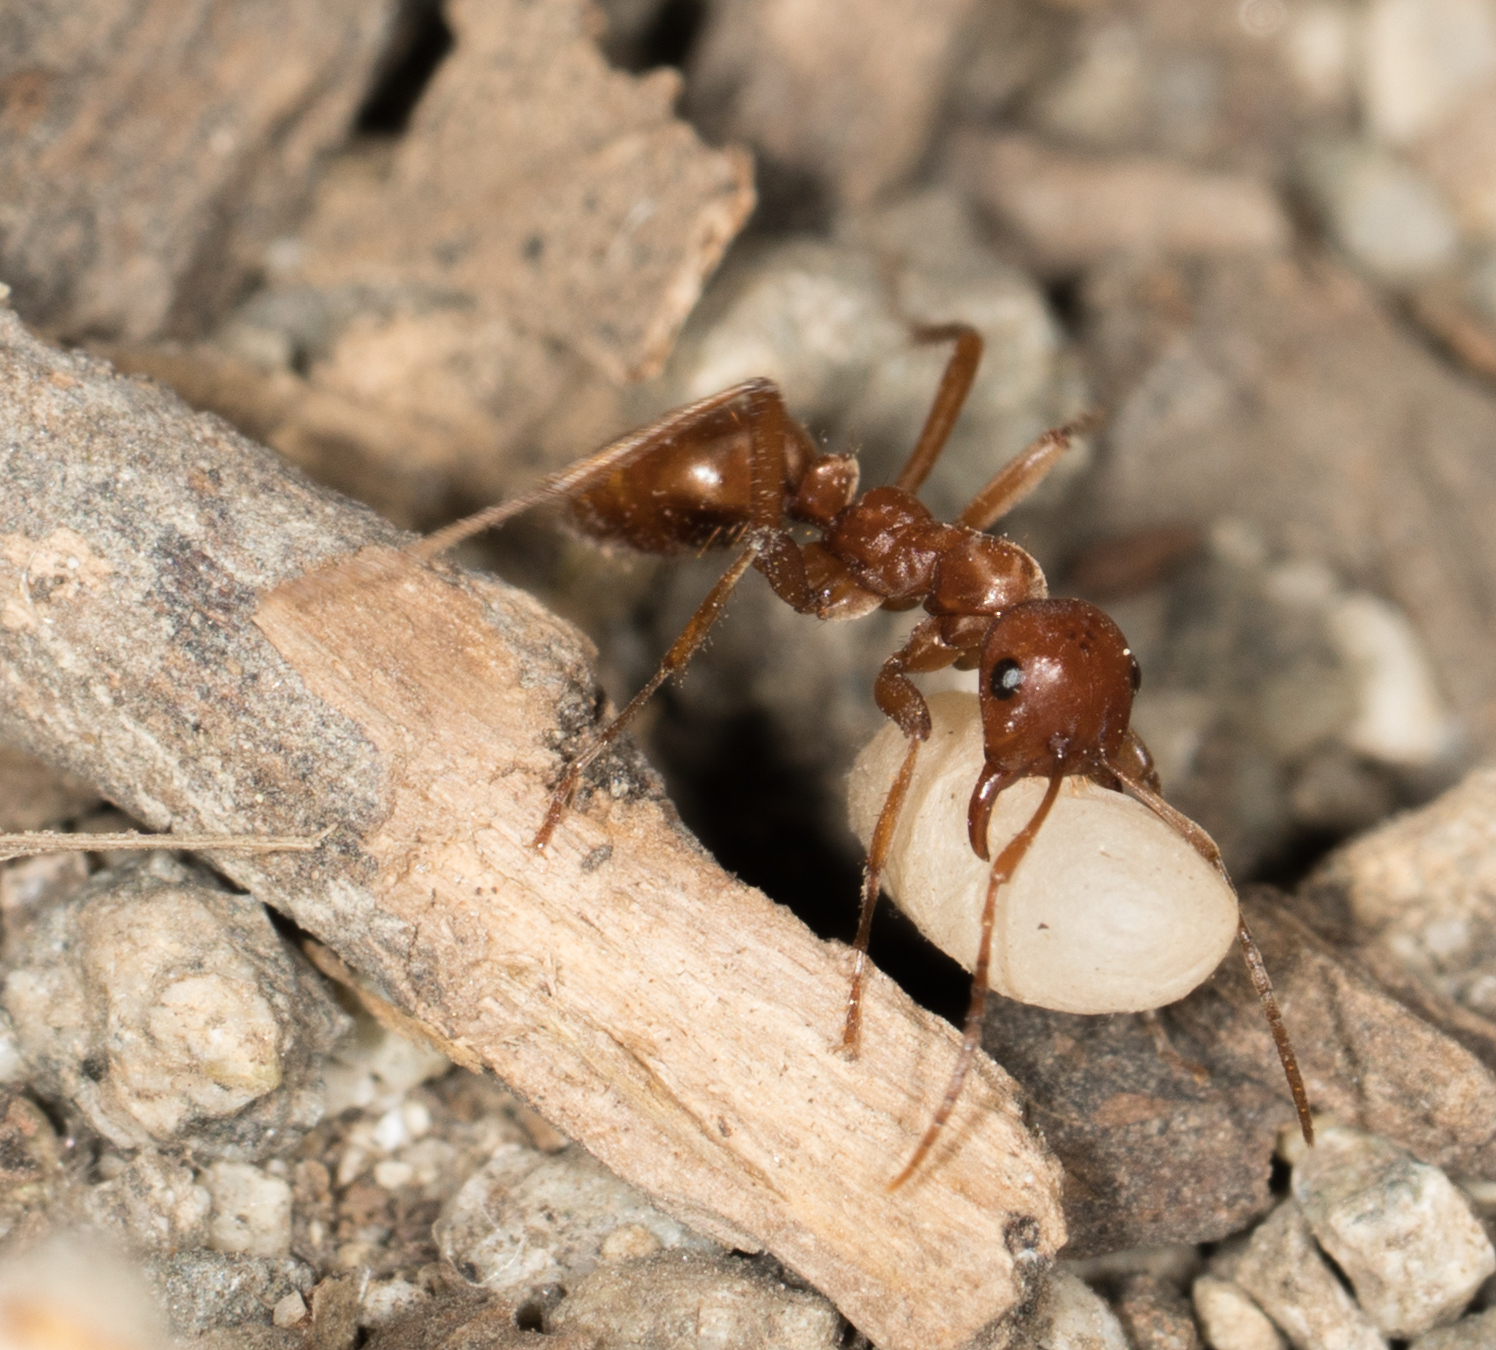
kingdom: Animalia
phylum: Arthropoda
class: Insecta
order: Hymenoptera
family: Formicidae
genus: Polyergus
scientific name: Polyergus vinosus
